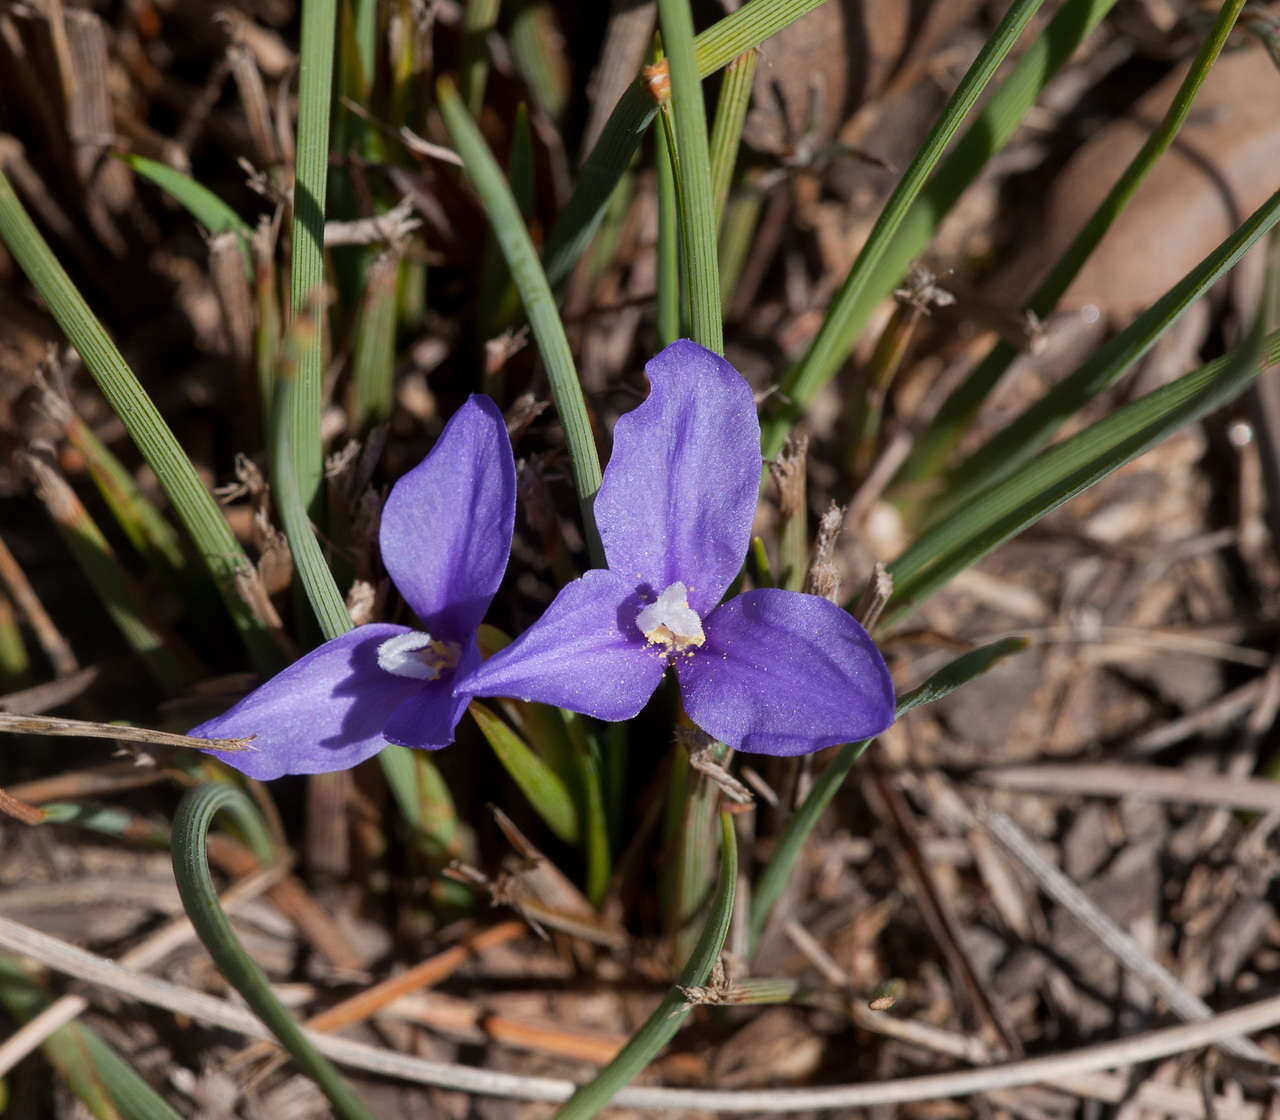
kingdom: Plantae
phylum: Tracheophyta
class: Liliopsida
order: Asparagales
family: Iridaceae
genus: Patersonia
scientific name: Patersonia fragilis
